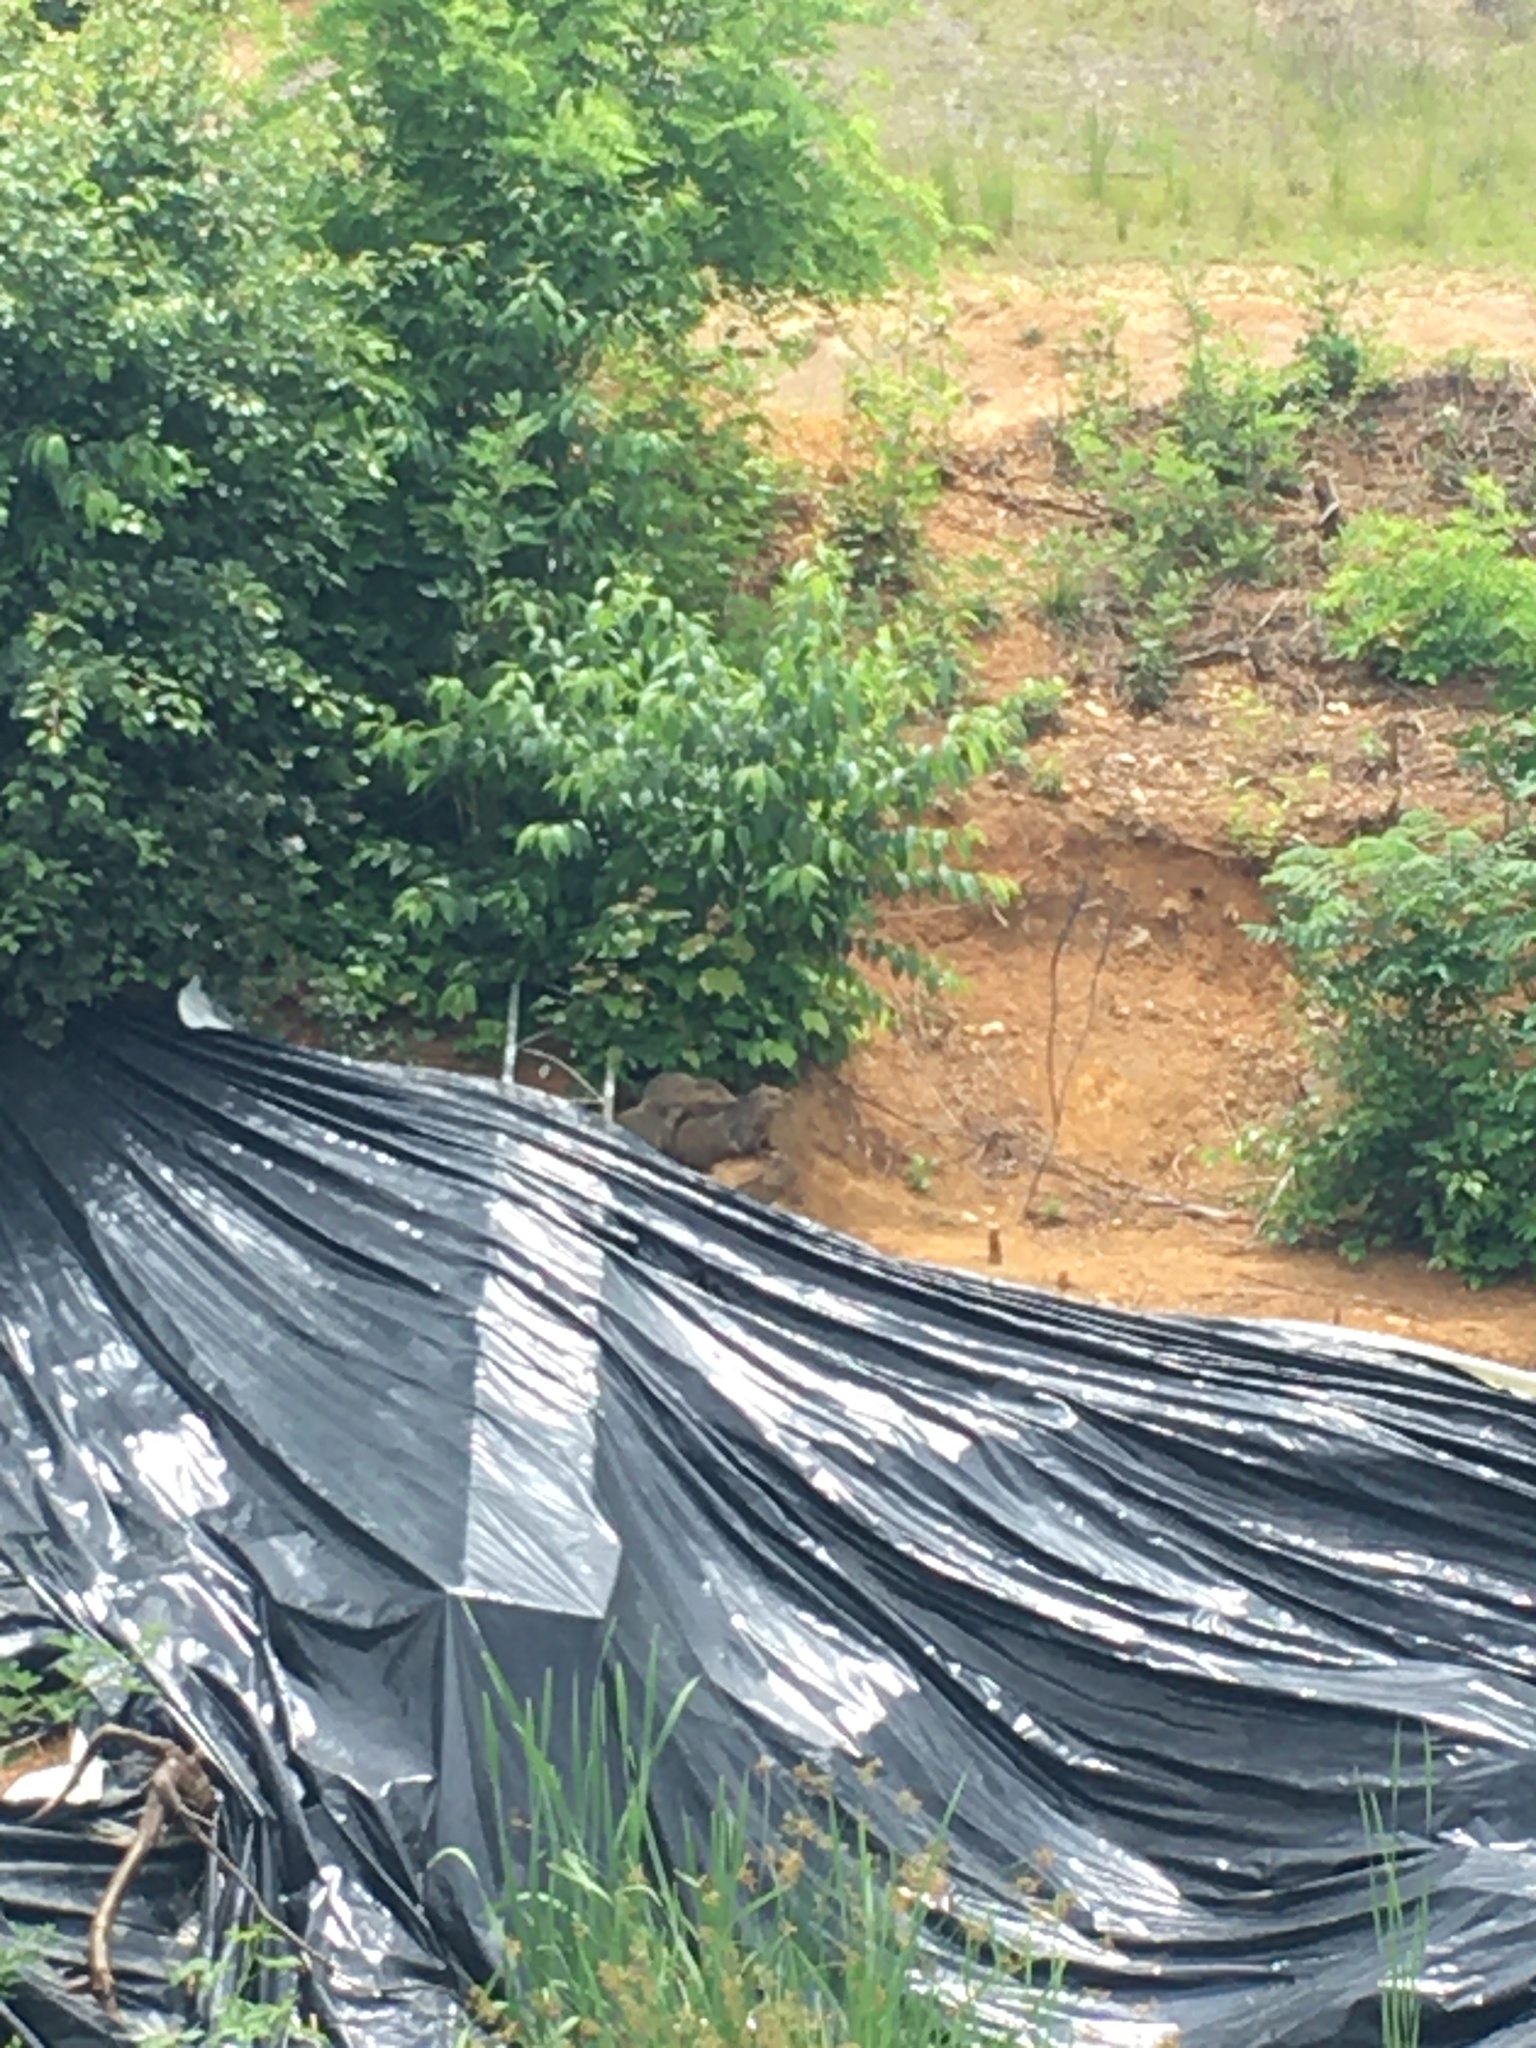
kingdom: Animalia
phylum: Chordata
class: Mammalia
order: Rodentia
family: Sciuridae
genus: Marmota
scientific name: Marmota monax
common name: Groundhog
